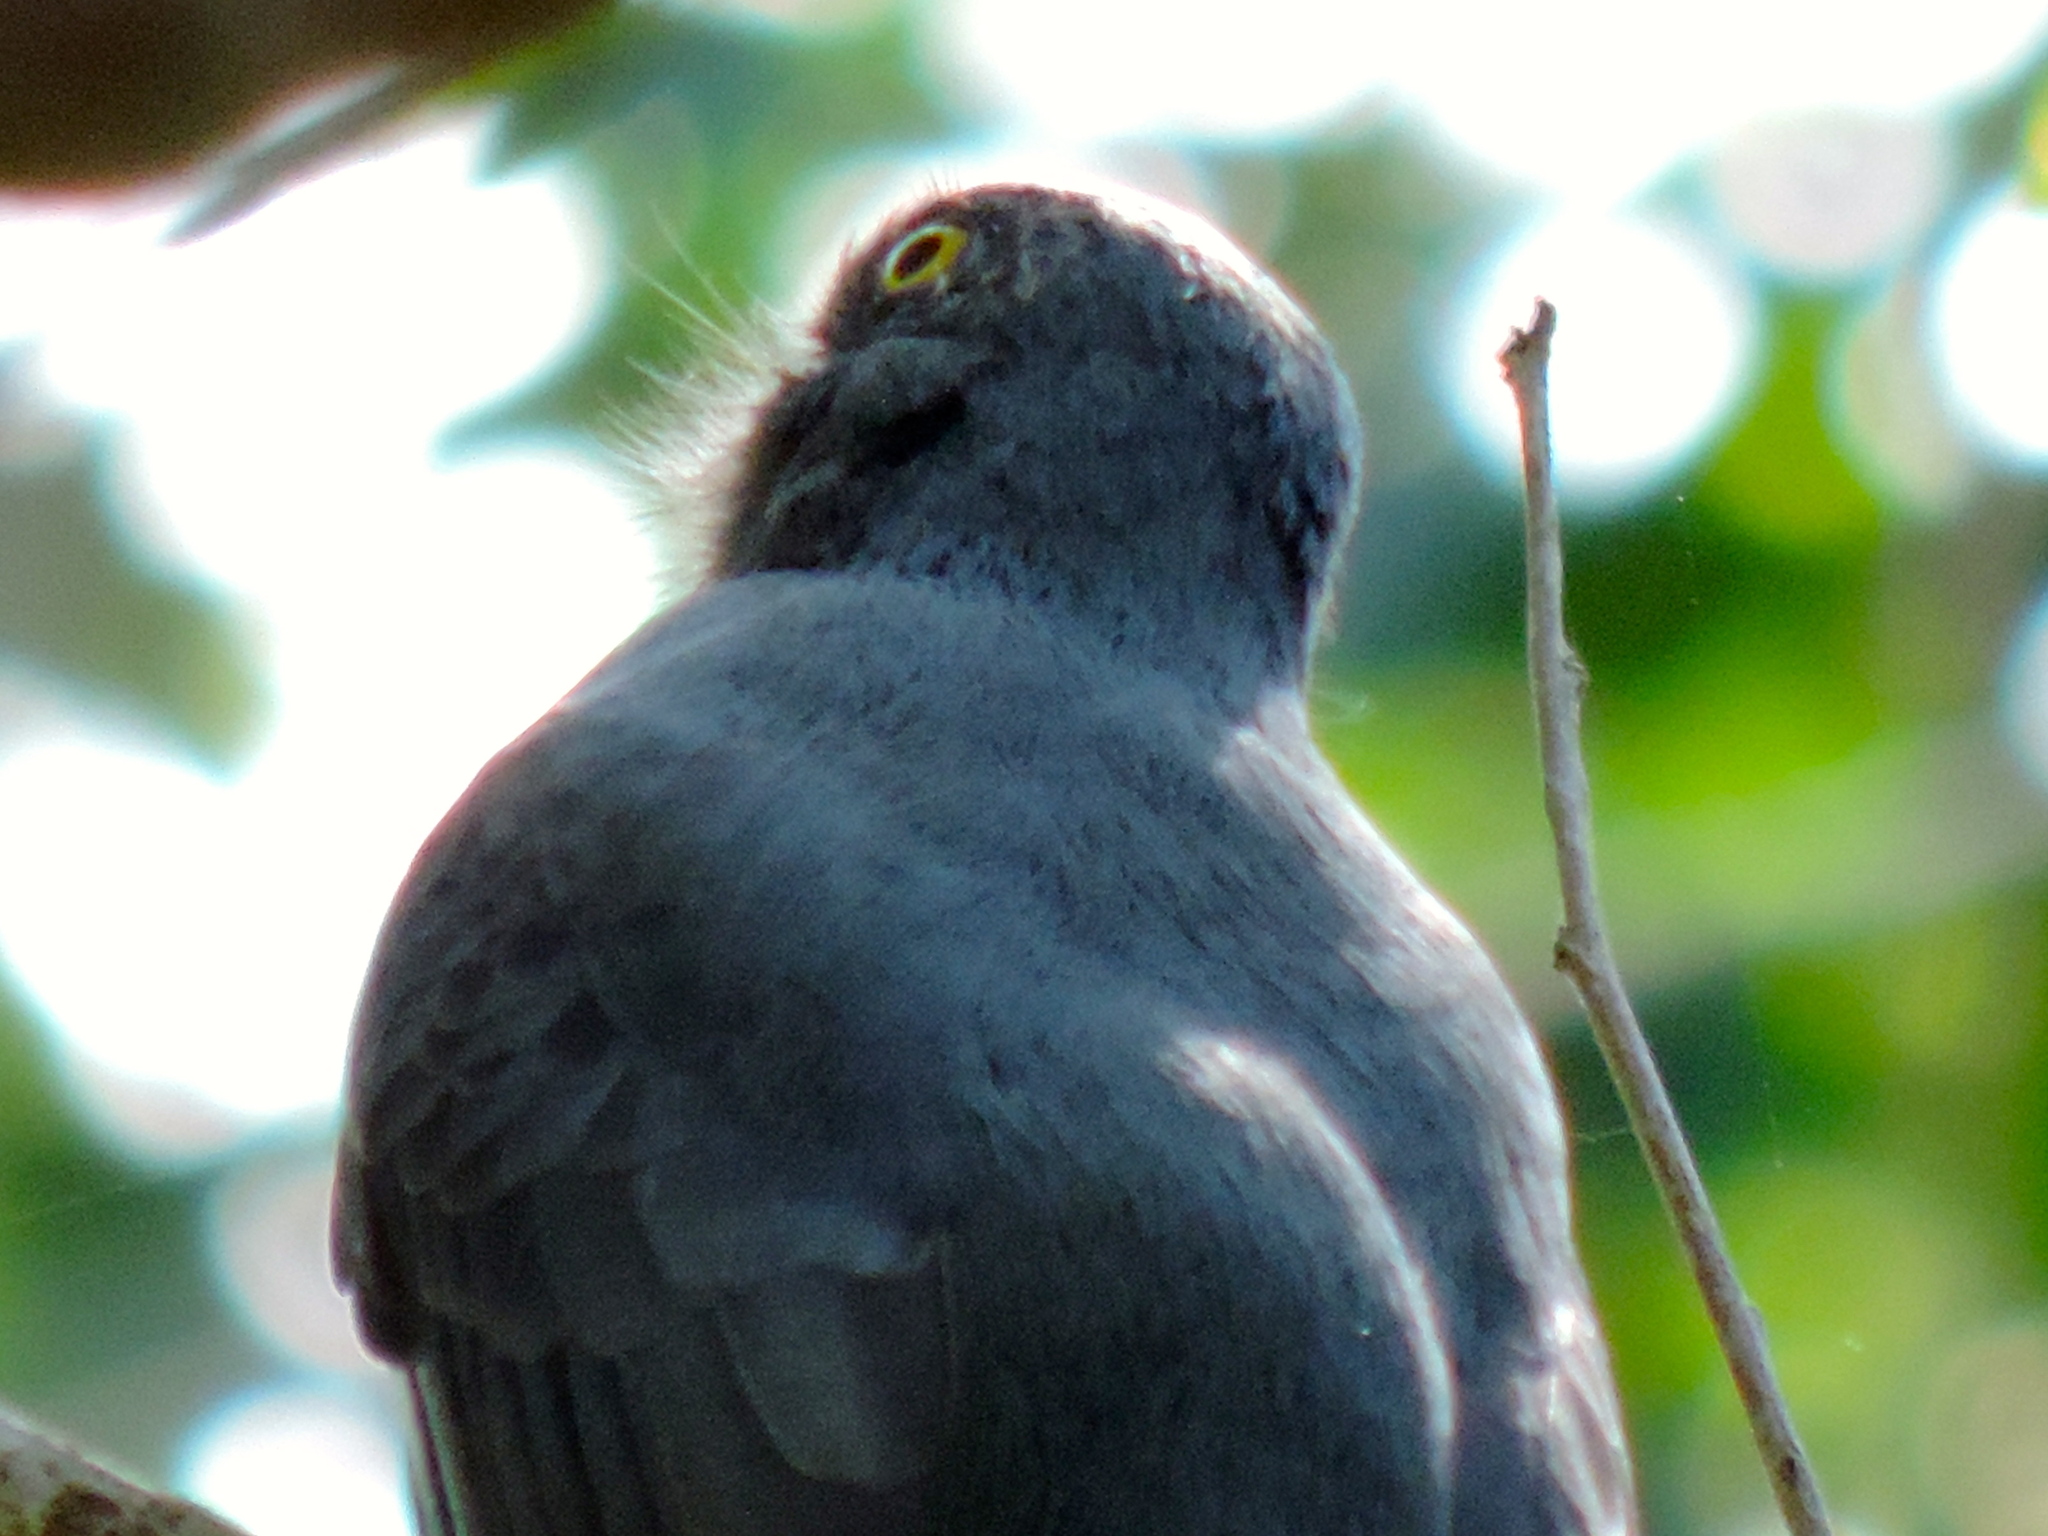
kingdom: Animalia
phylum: Chordata
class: Aves
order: Trogoniformes
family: Trogonidae
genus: Trogon
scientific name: Trogon citreolus
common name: Citreoline trogon
